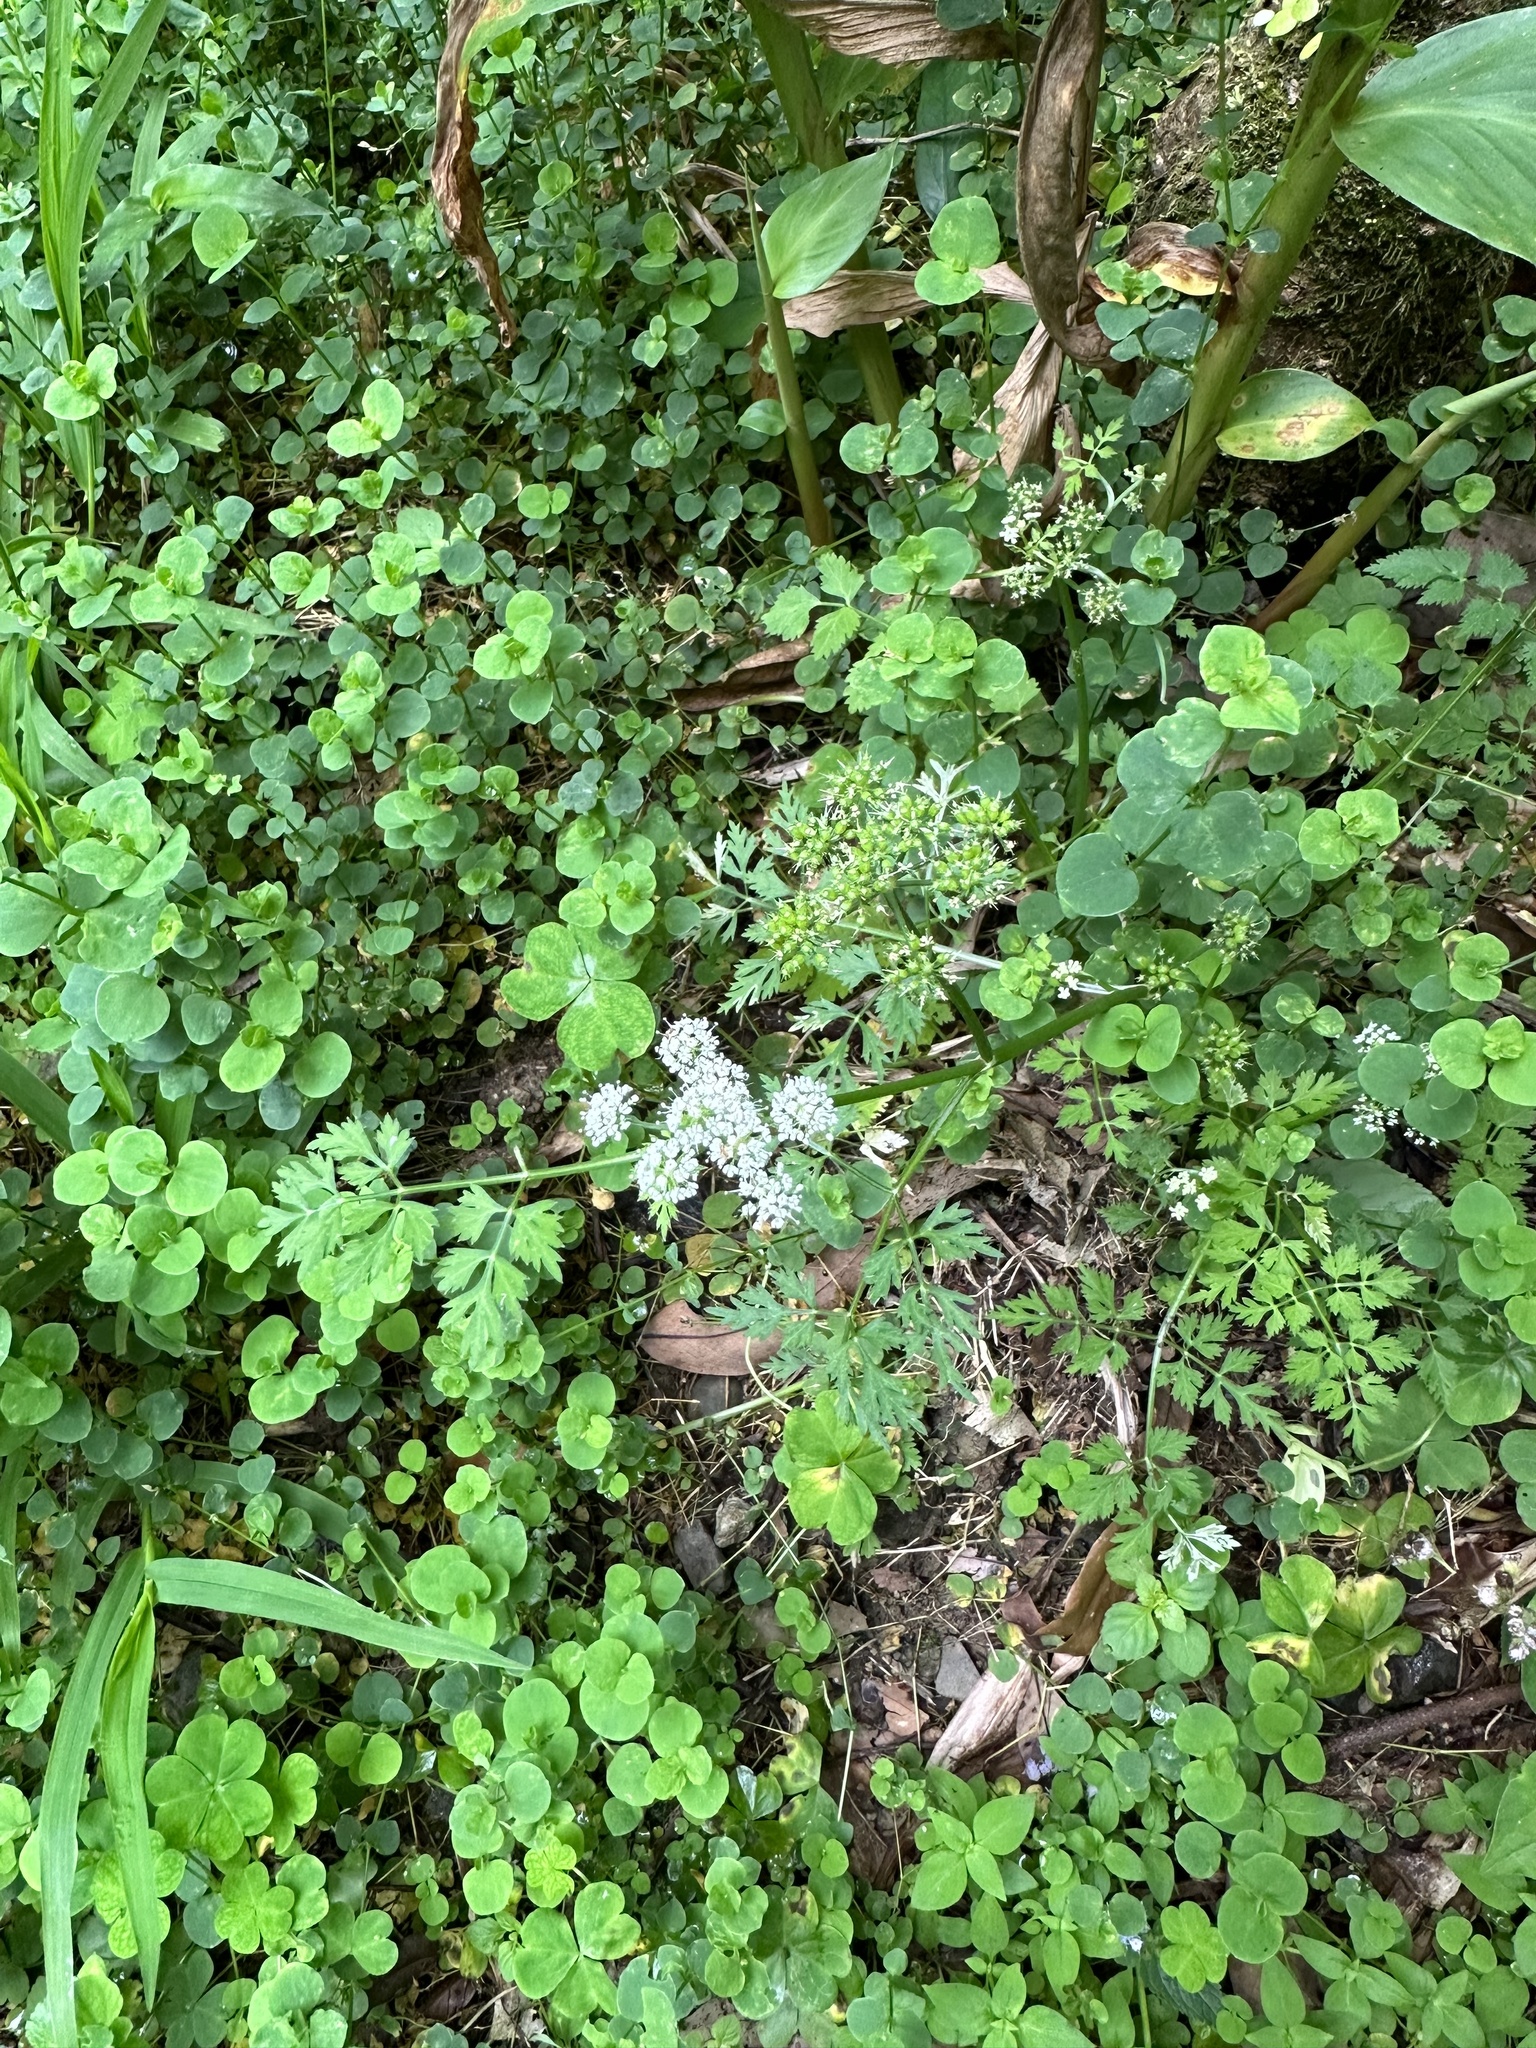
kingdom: Plantae
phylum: Tracheophyta
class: Magnoliopsida
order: Apiales
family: Apiaceae
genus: Oenanthe
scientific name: Oenanthe javanica
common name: Java water-dropwort
